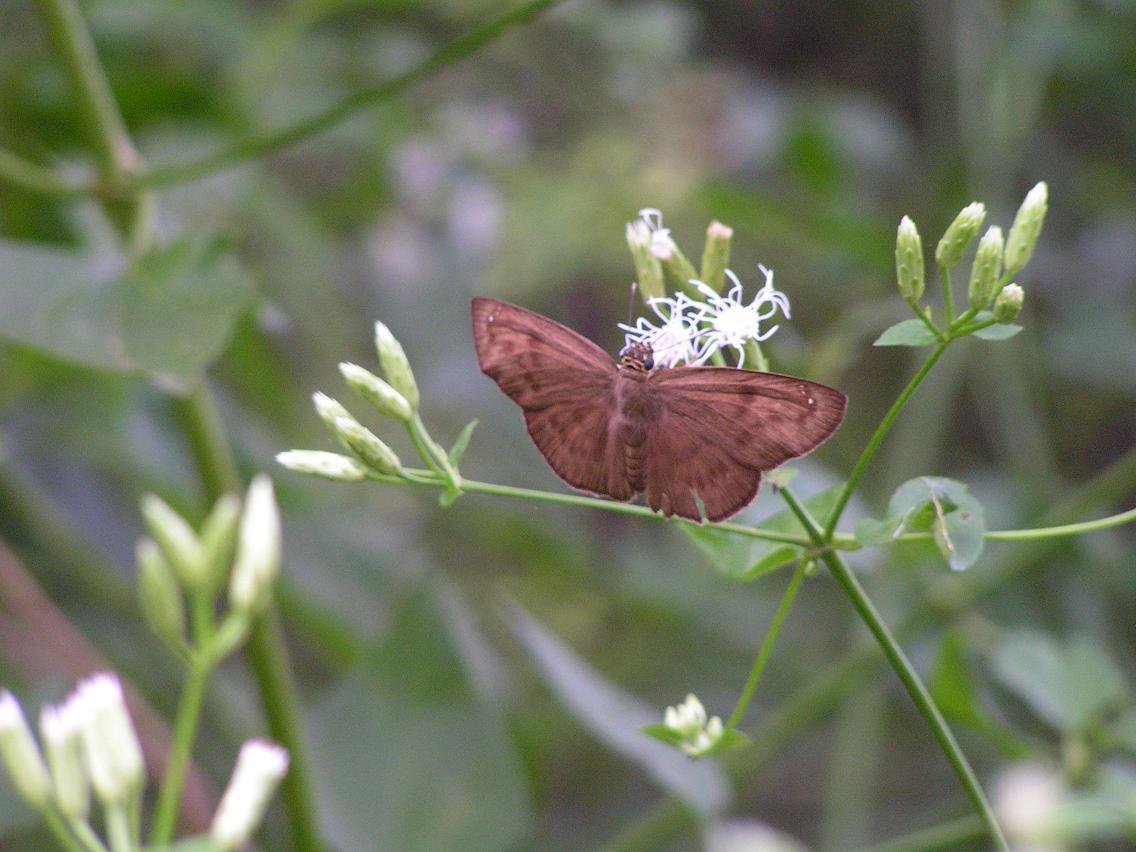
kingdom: Animalia
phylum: Arthropoda
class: Insecta
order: Lepidoptera
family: Hesperiidae
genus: Grais
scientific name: Grais stigmaticus
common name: Hermit skipper
